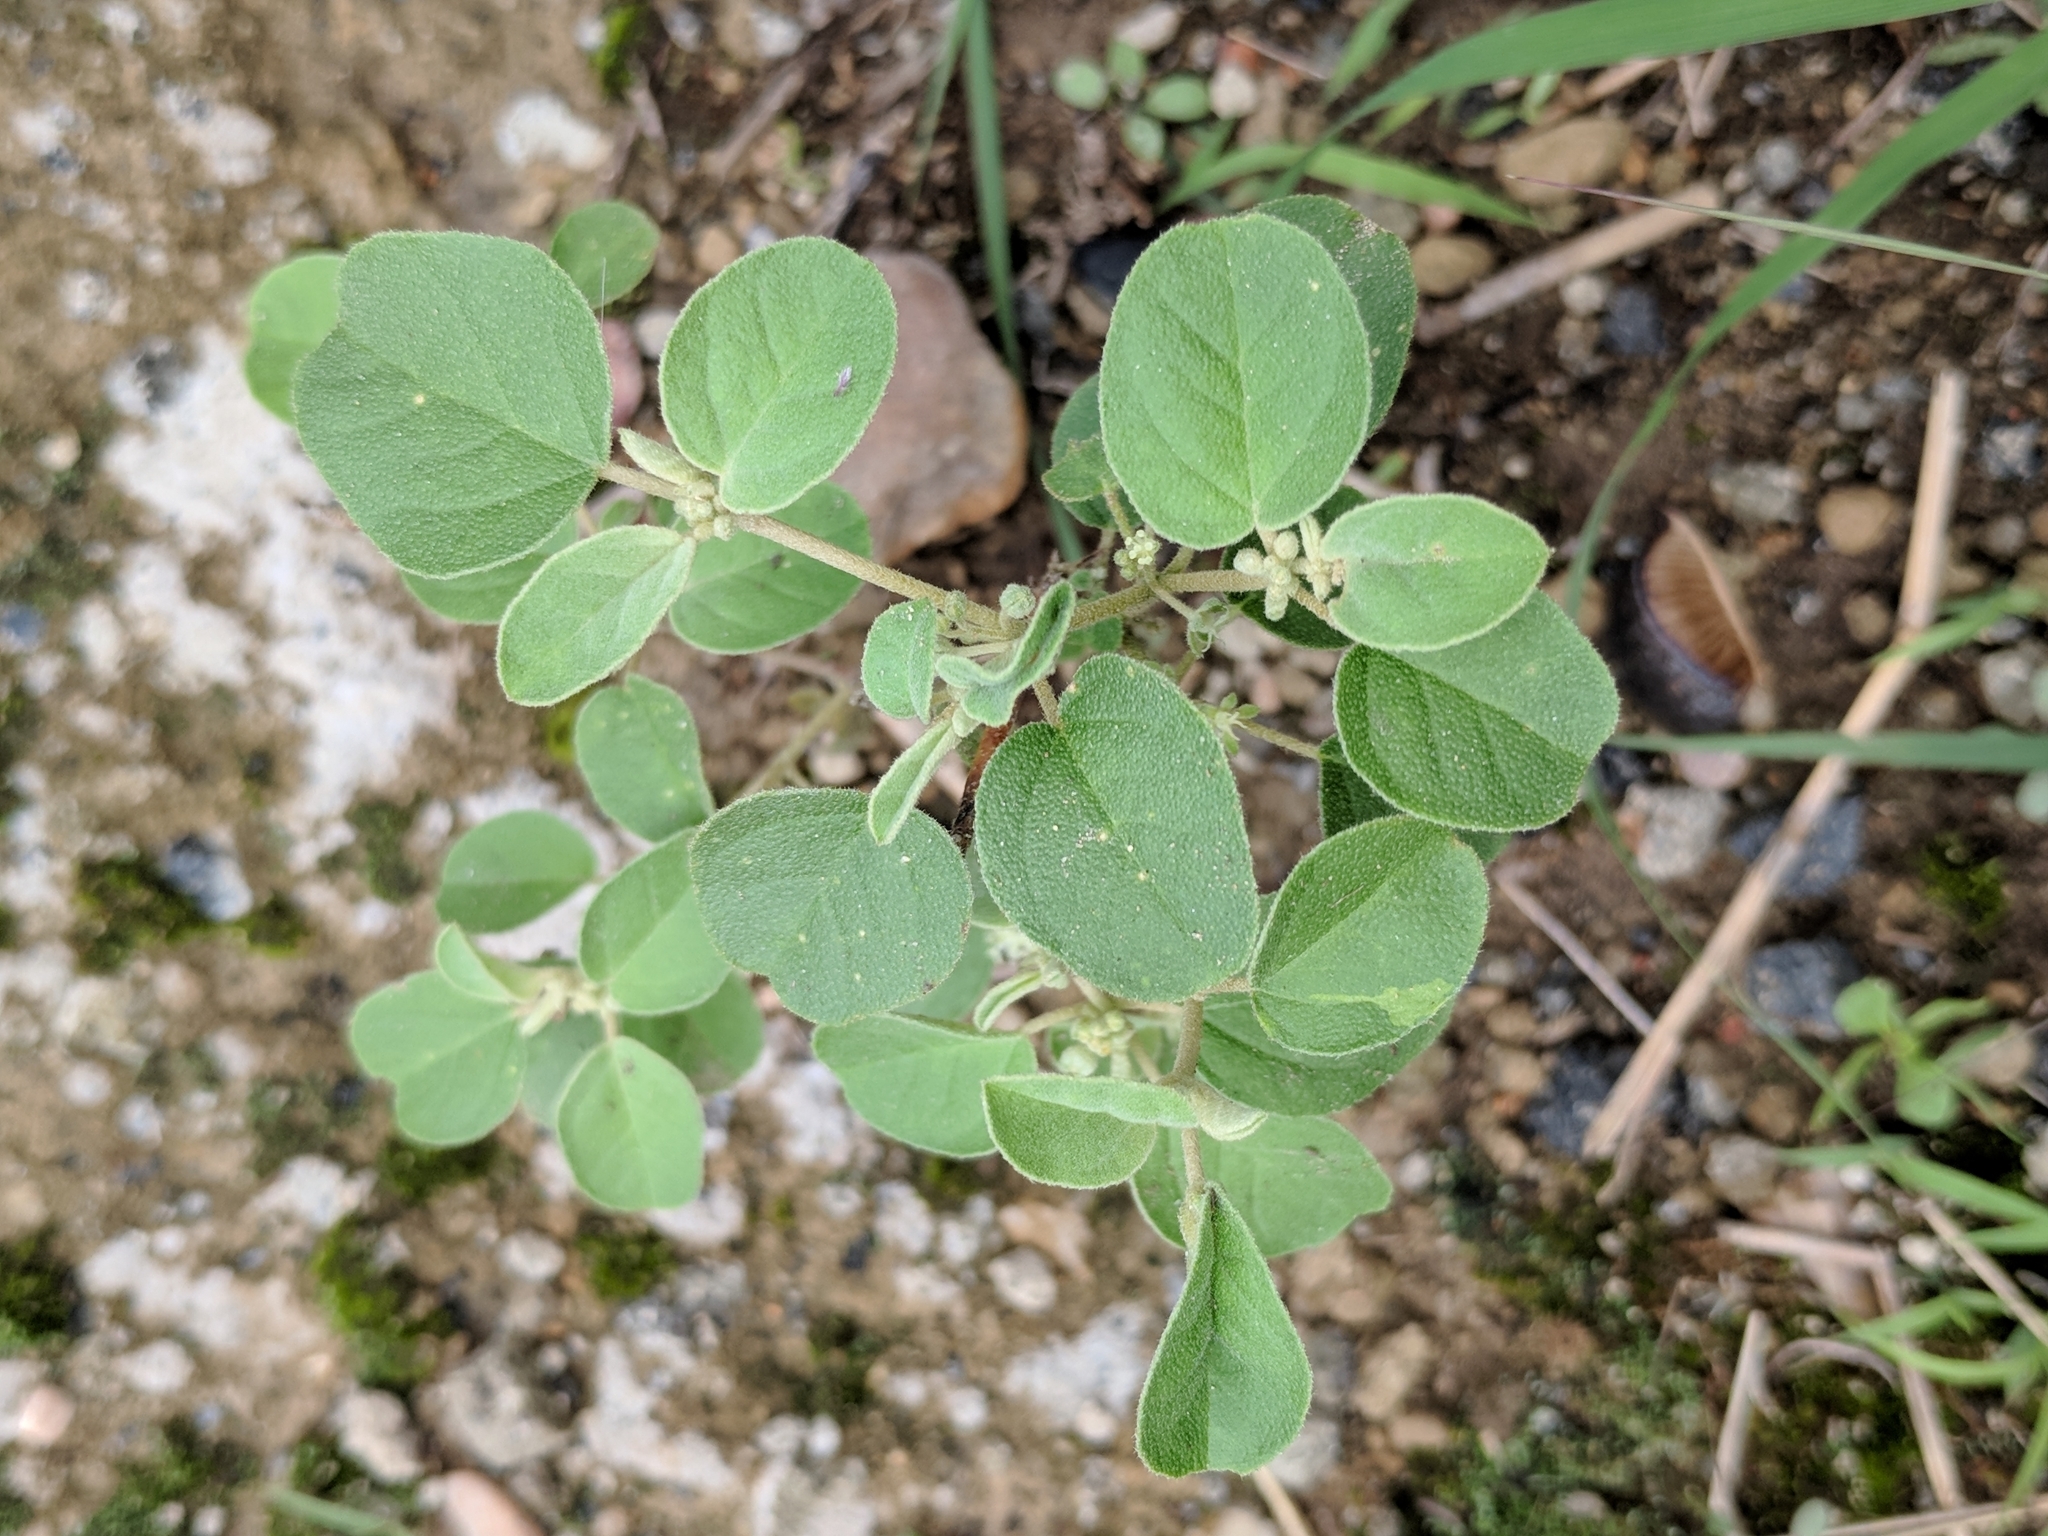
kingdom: Plantae
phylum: Tracheophyta
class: Magnoliopsida
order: Malpighiales
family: Euphorbiaceae
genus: Croton
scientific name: Croton lindheimerianus
